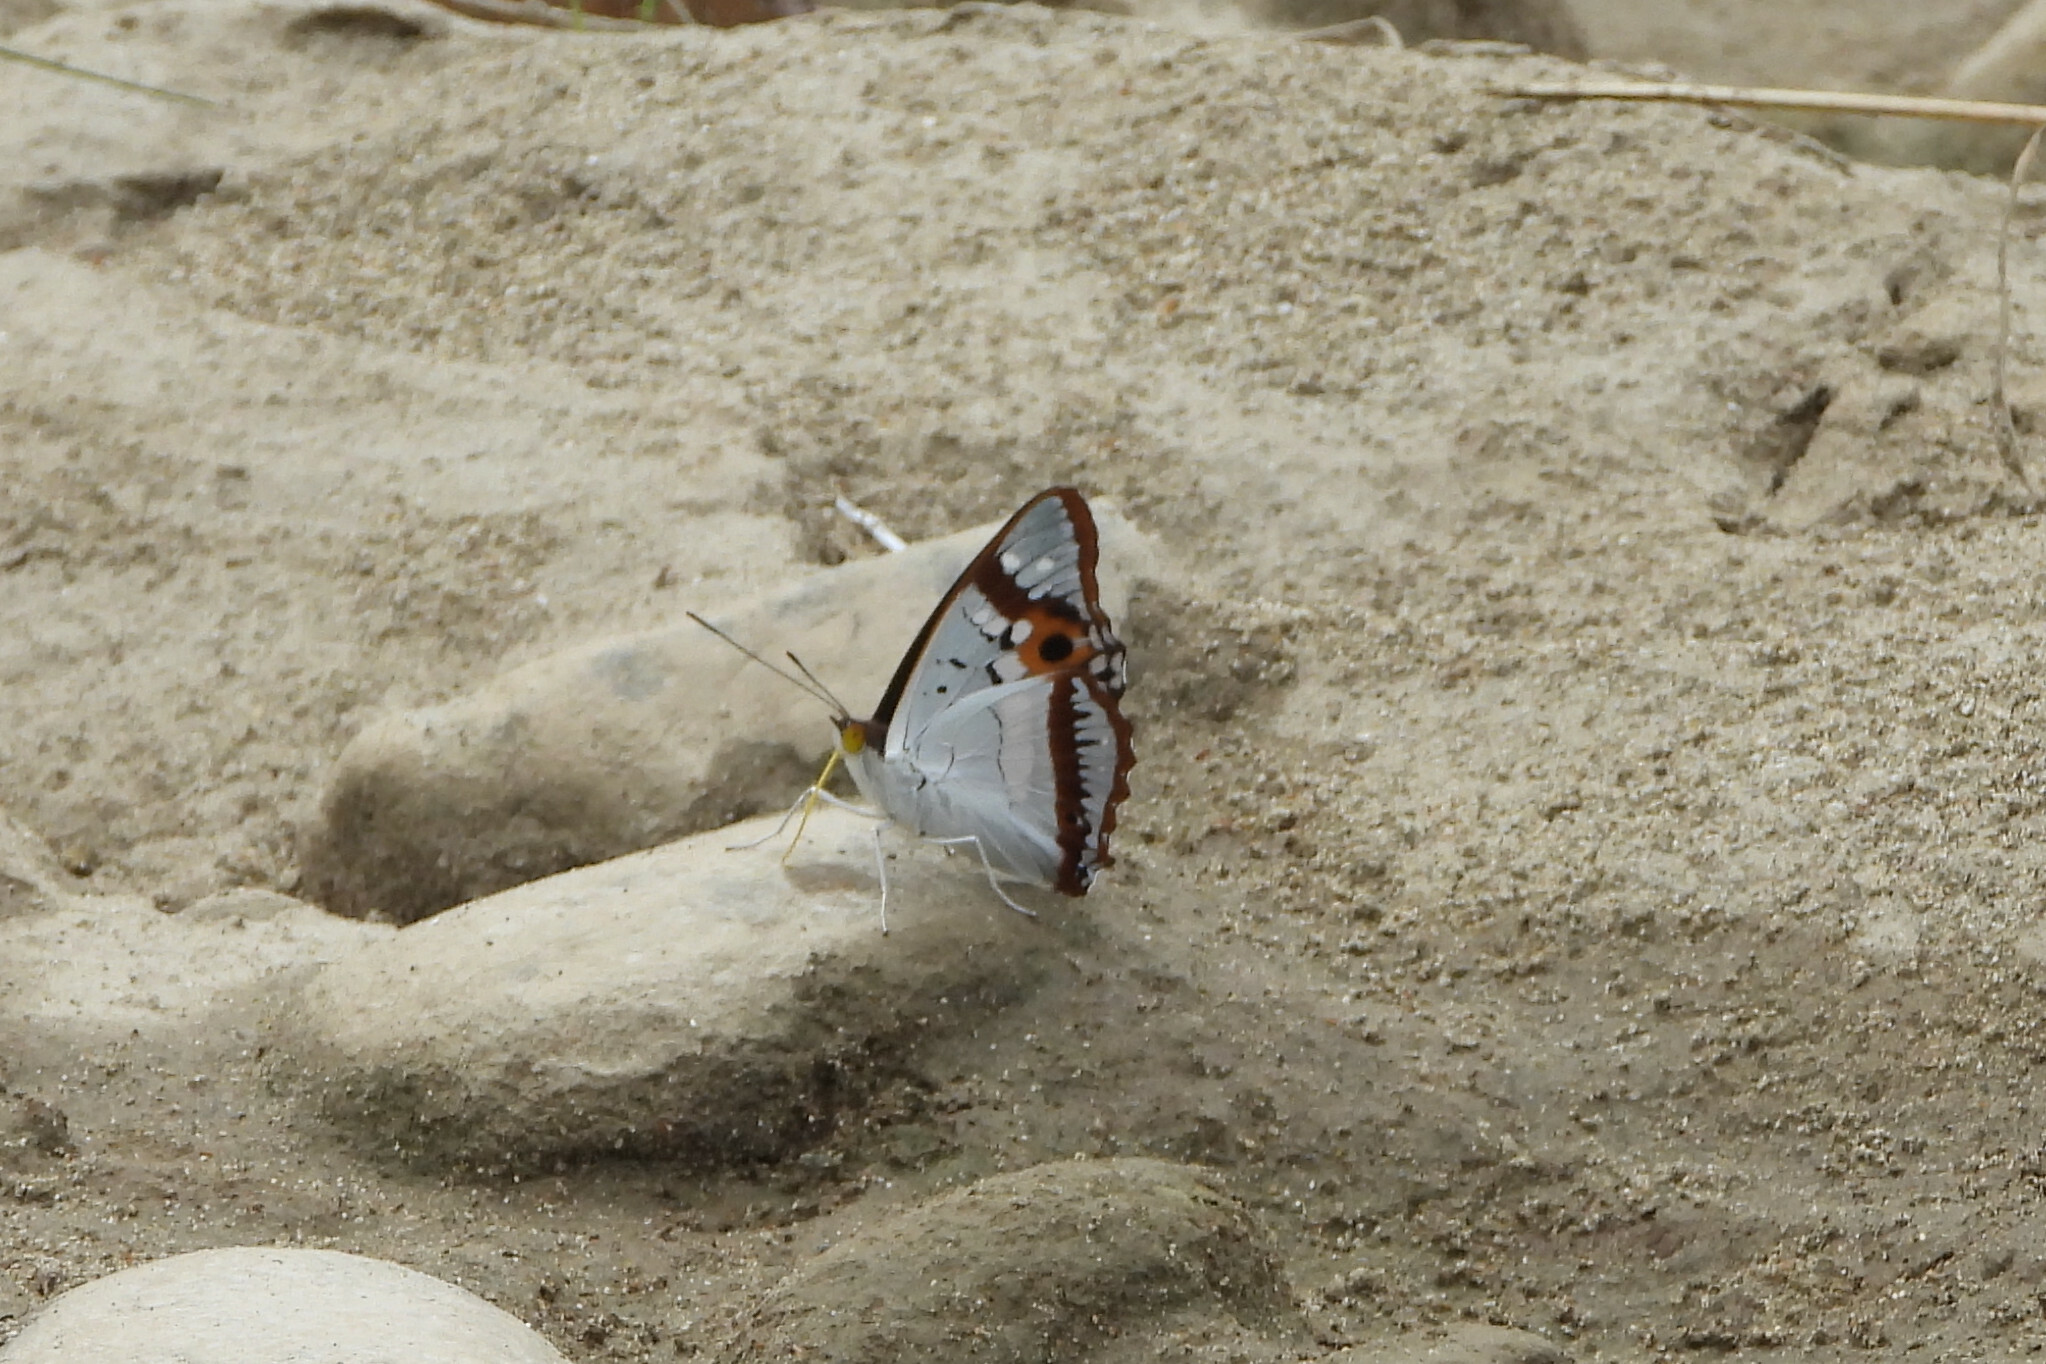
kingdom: Animalia
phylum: Arthropoda
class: Insecta
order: Lepidoptera
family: Nymphalidae
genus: Apatura
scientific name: Apatura Mimathyma ambica
